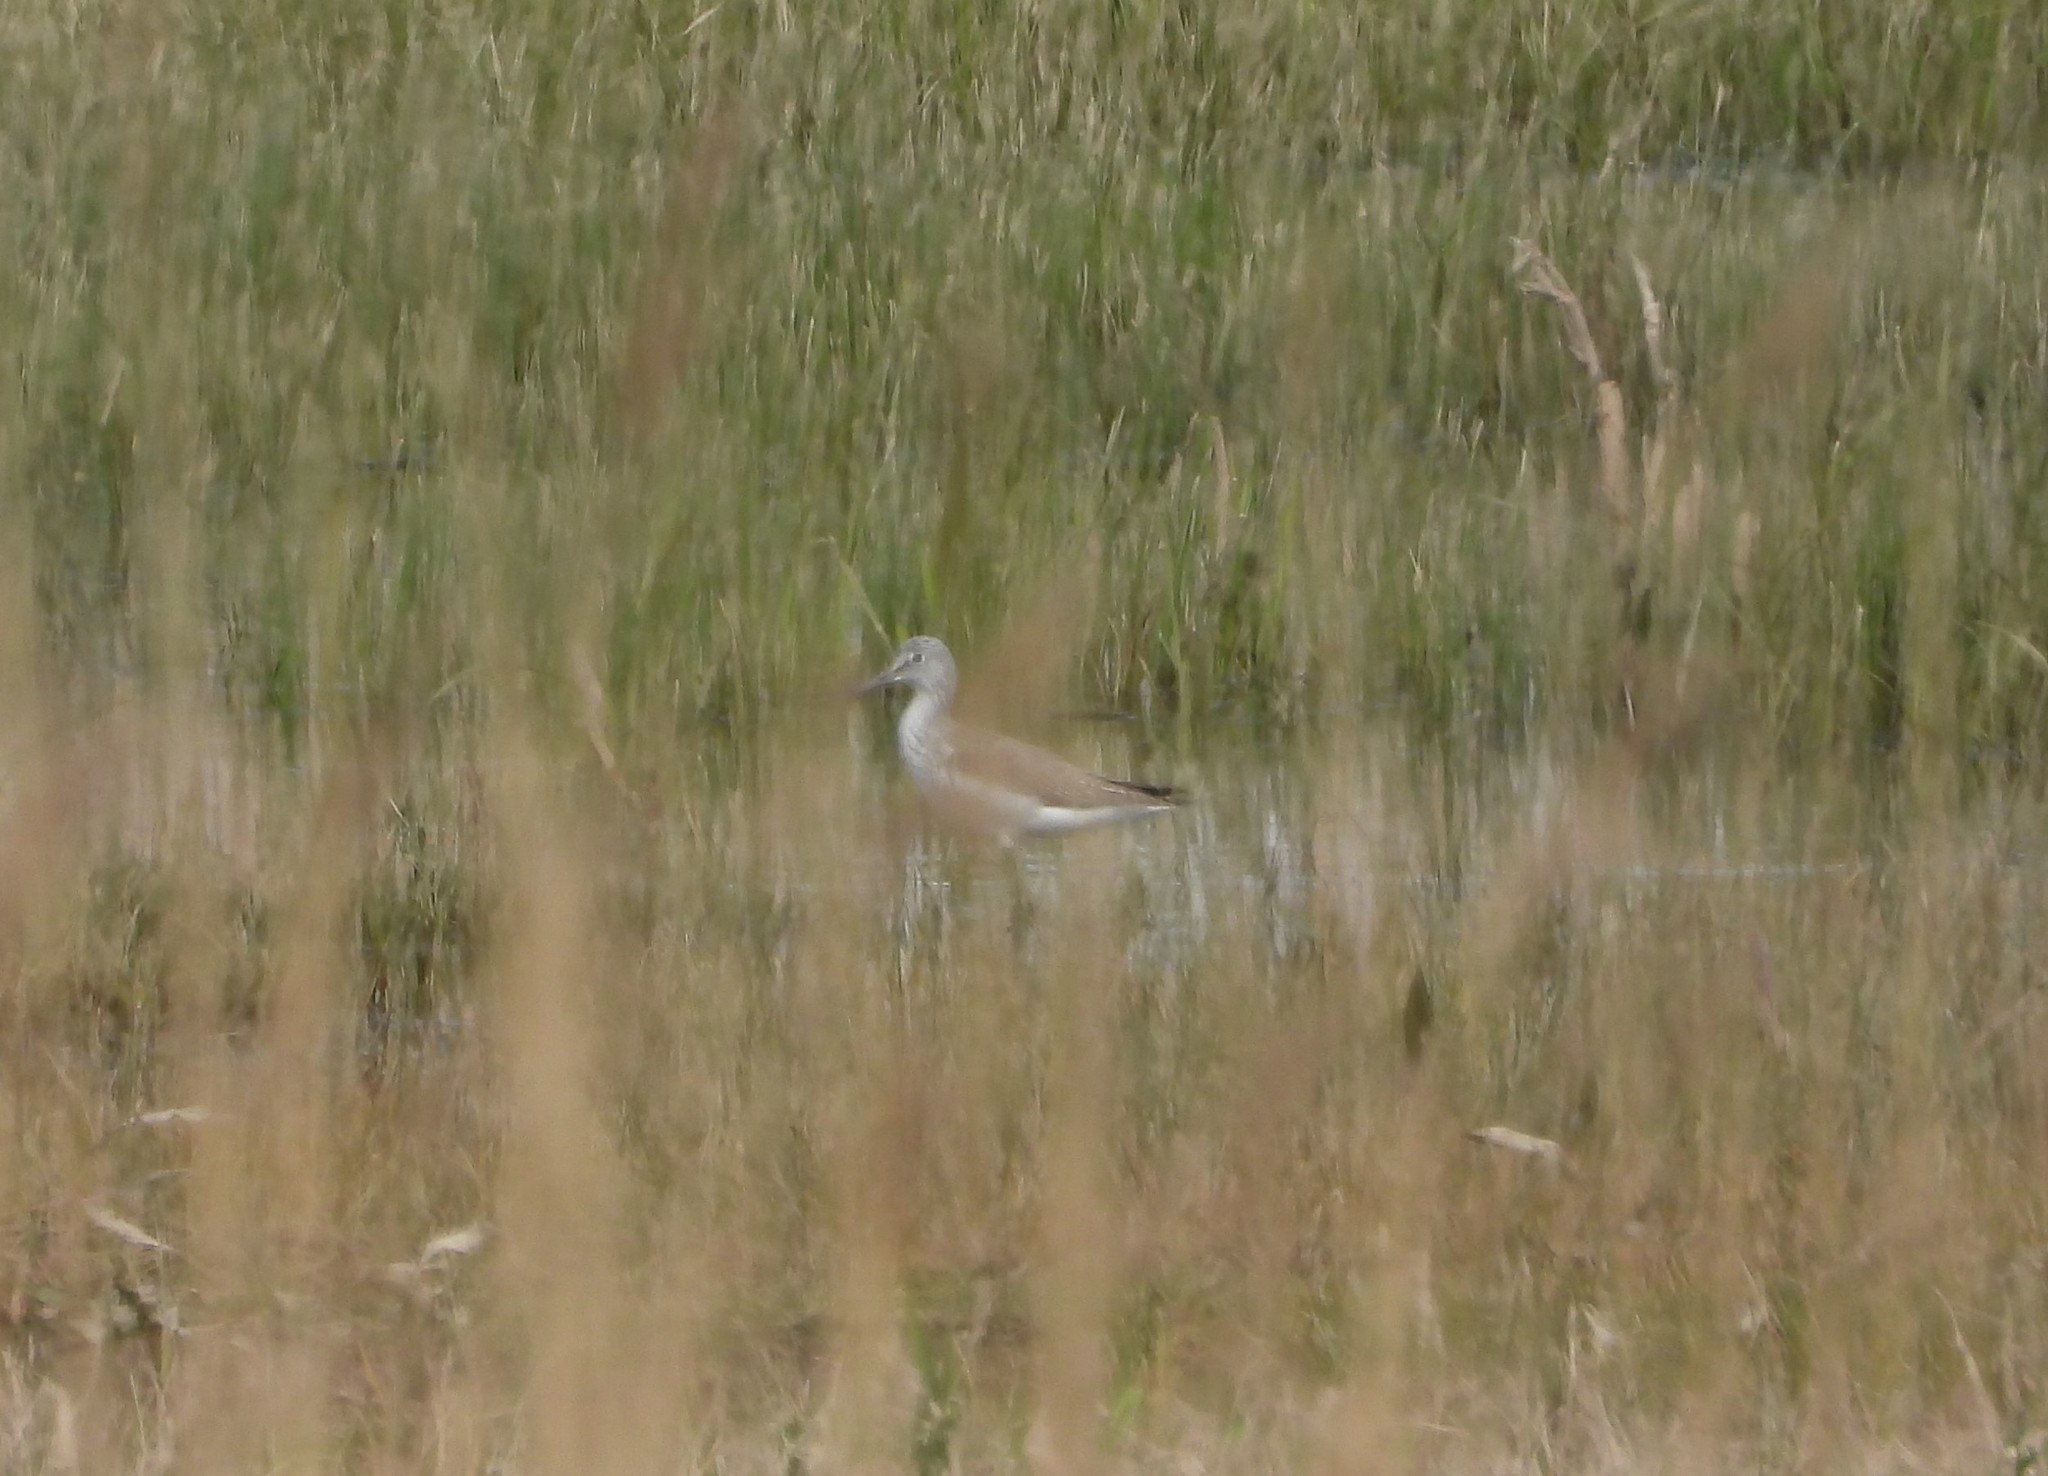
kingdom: Animalia
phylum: Chordata
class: Aves
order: Charadriiformes
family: Scolopacidae
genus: Tringa
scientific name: Tringa nebularia
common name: Common greenshank
